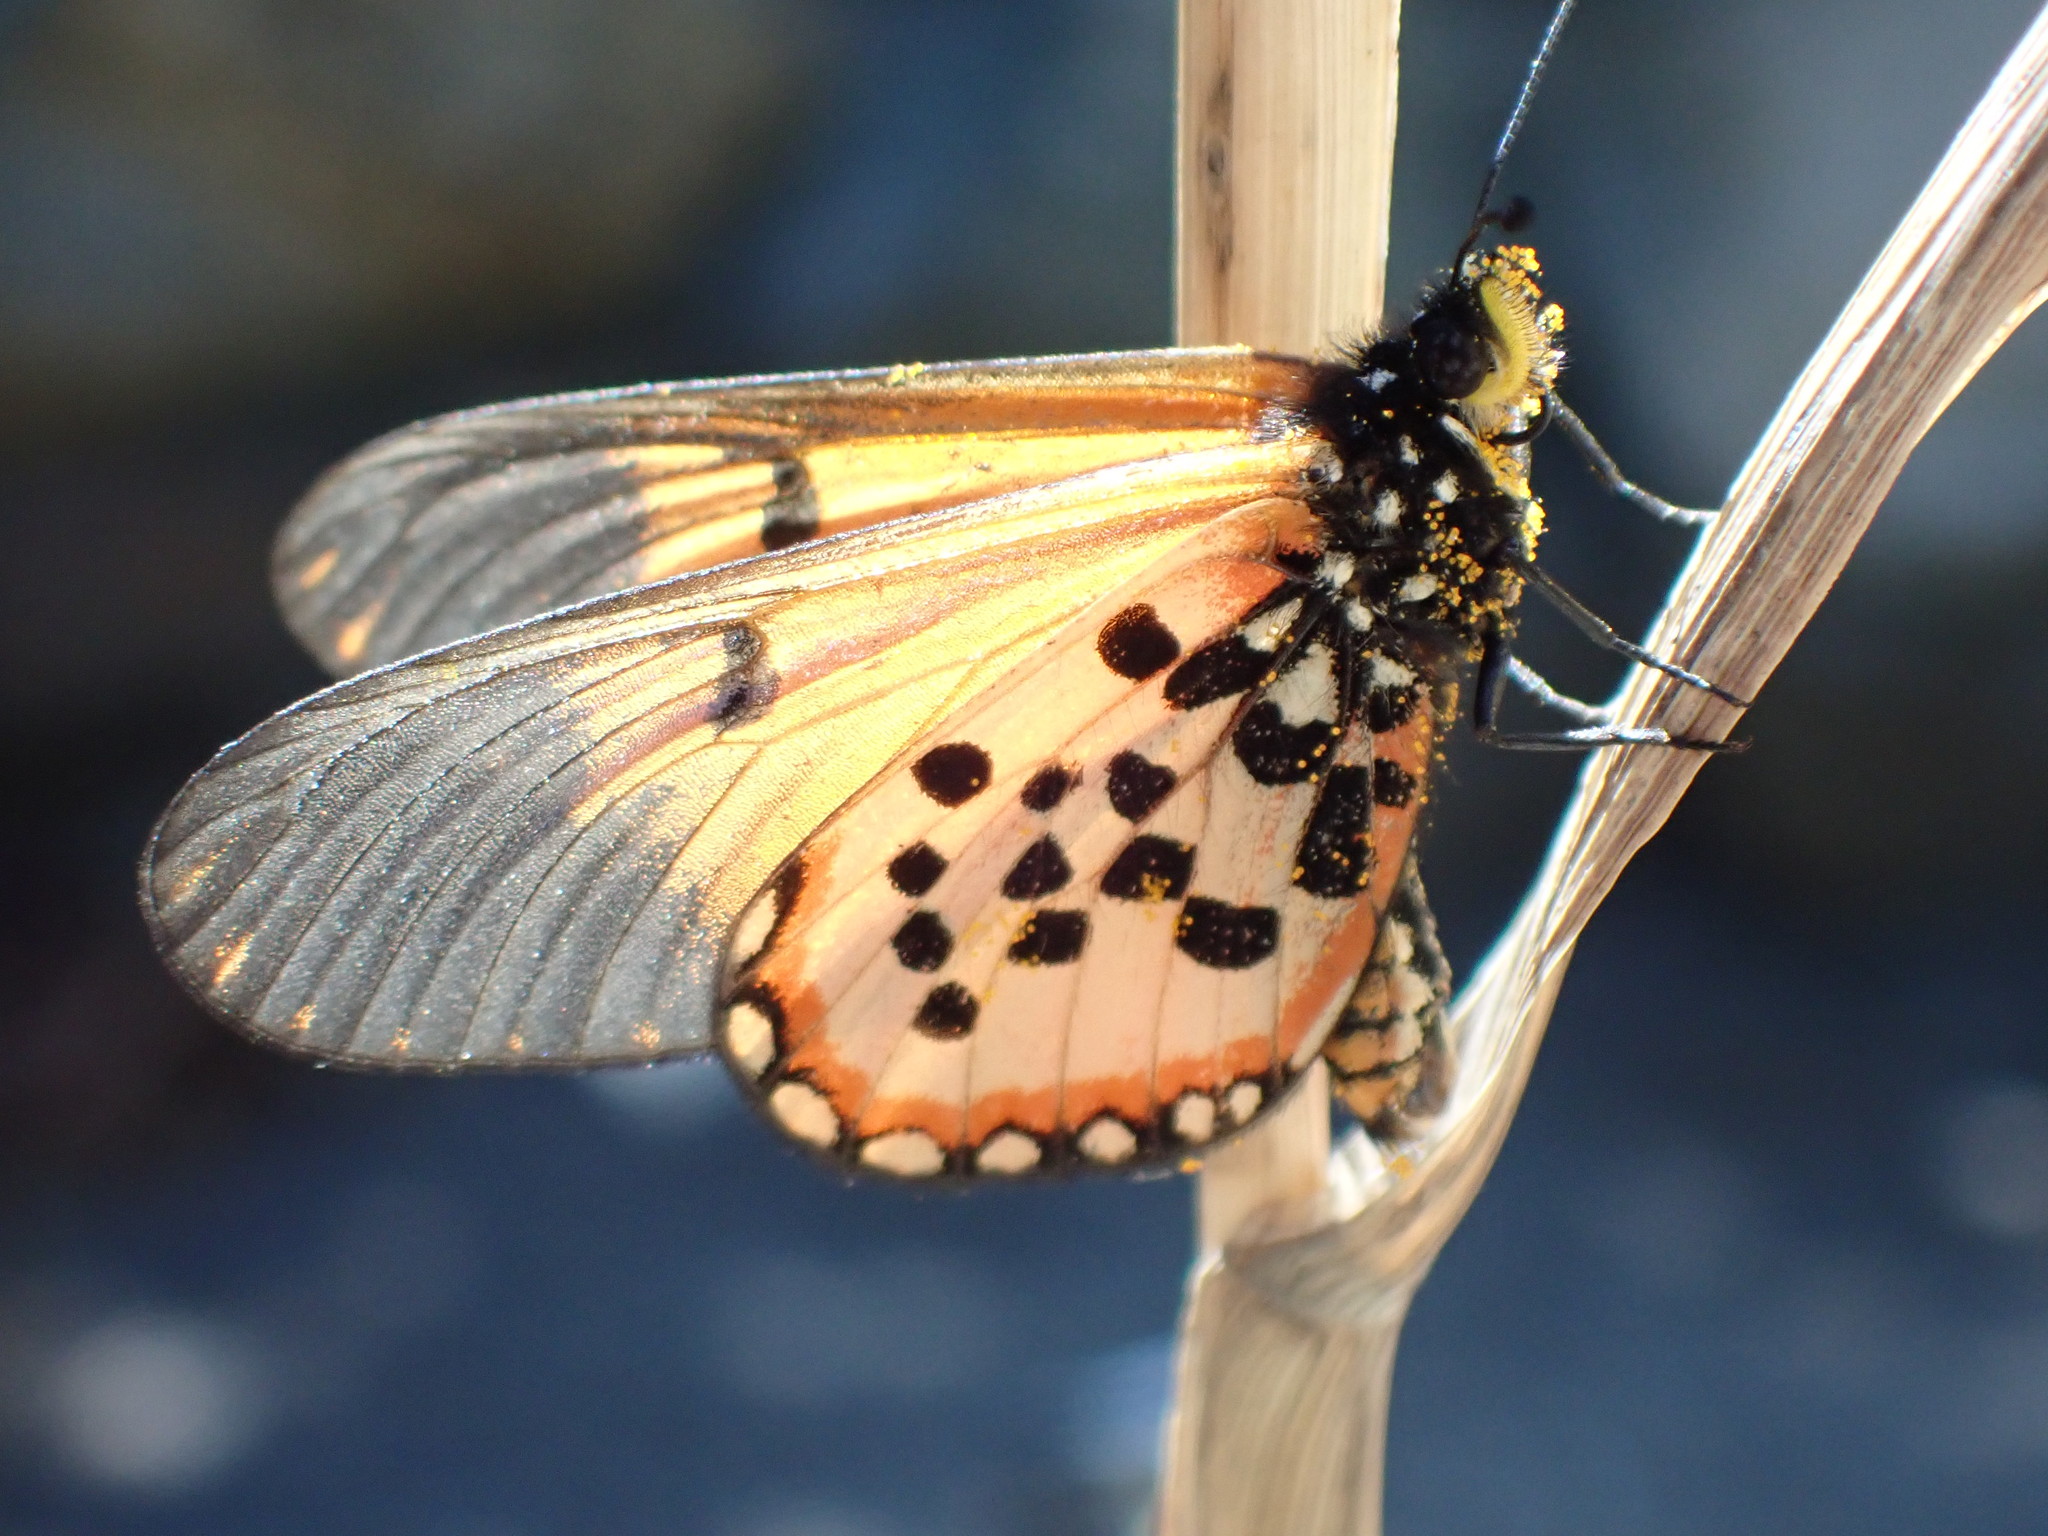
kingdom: Animalia
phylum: Arthropoda
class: Insecta
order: Lepidoptera
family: Nymphalidae
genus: Acraea
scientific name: Acraea horta
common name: Garden acraea
